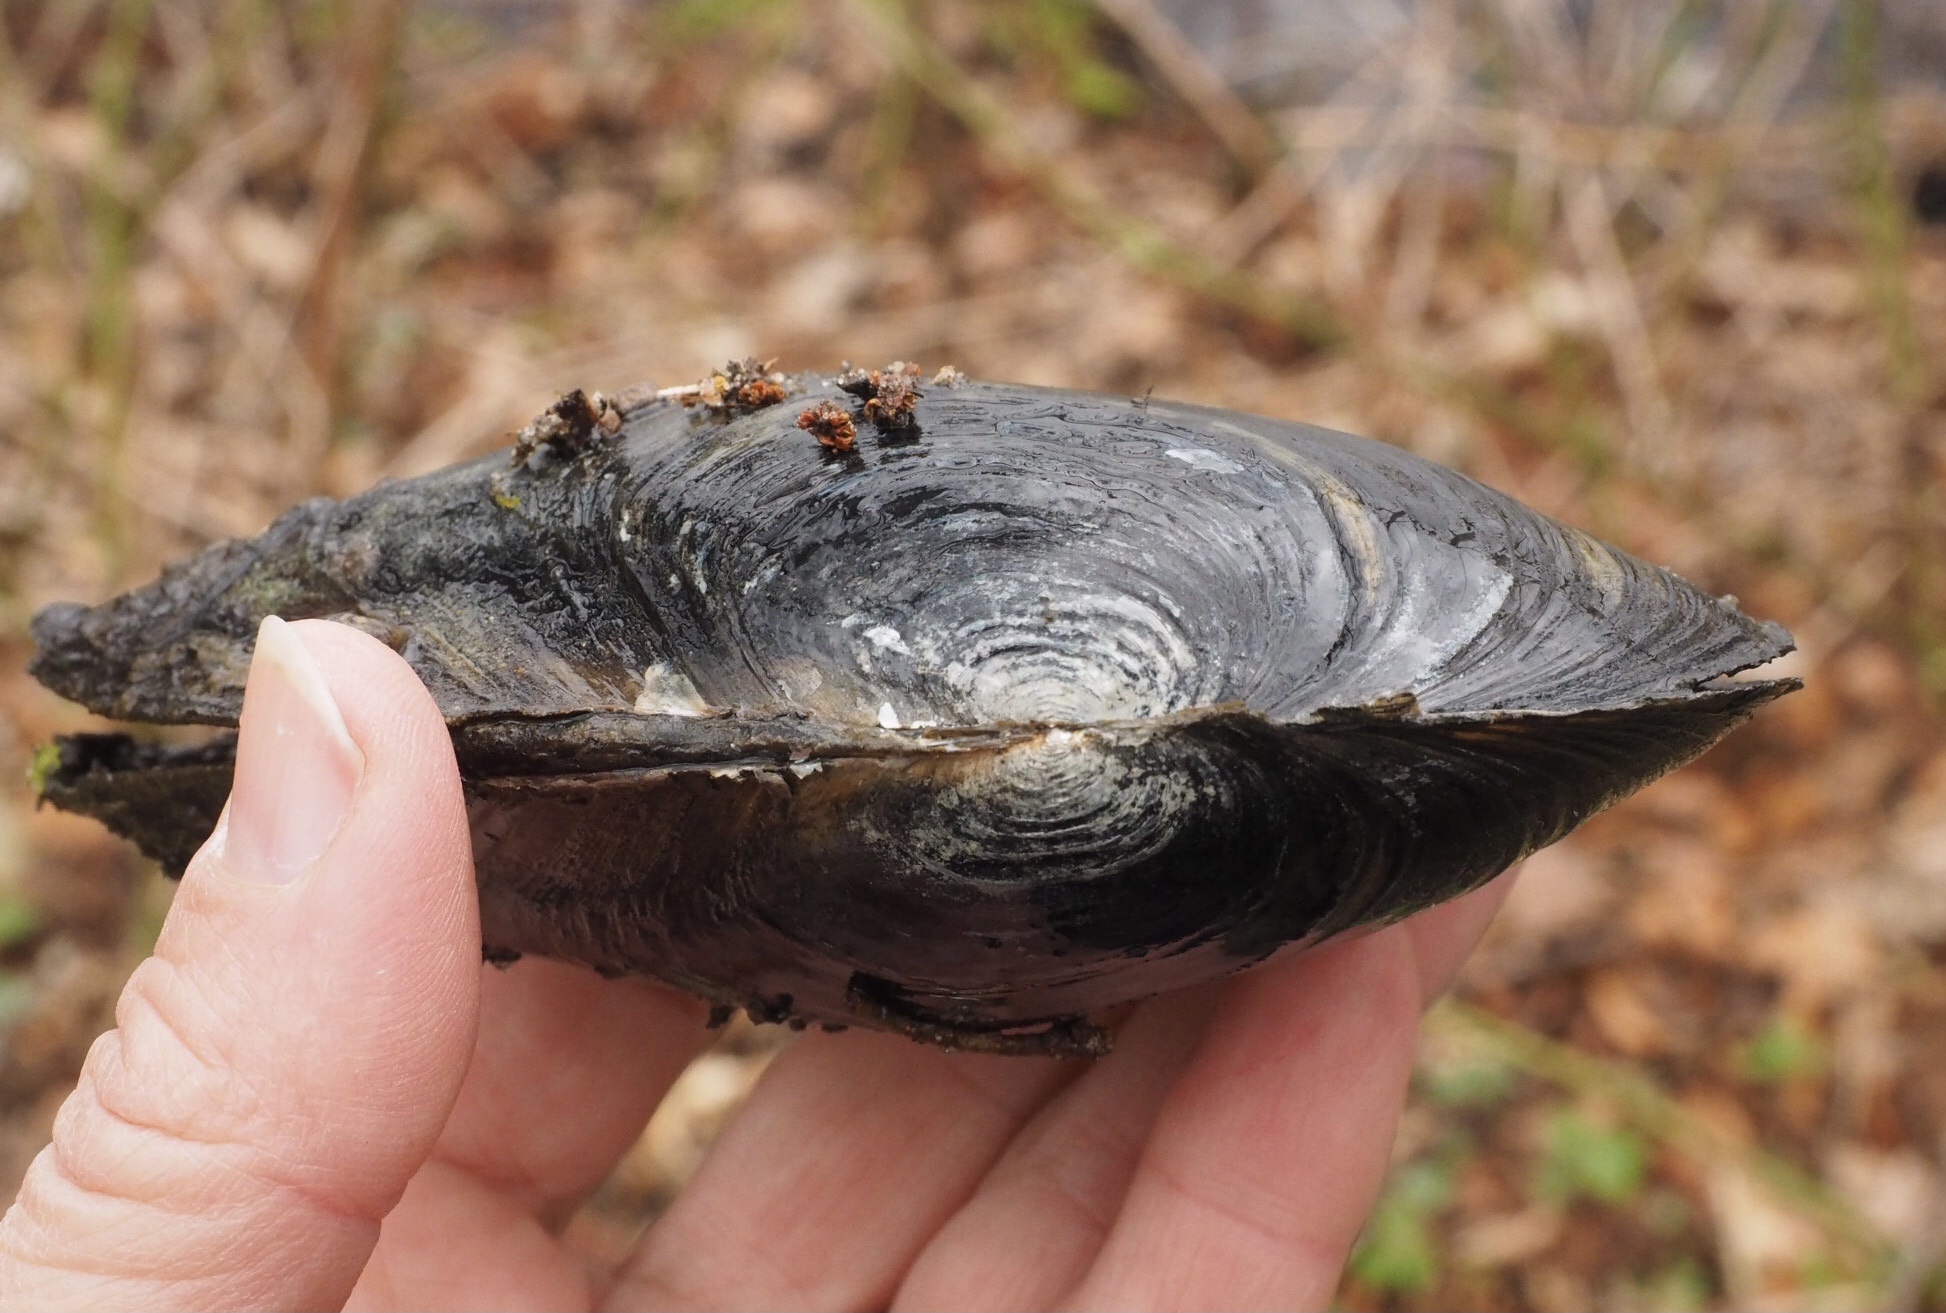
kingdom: Animalia
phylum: Mollusca
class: Bivalvia
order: Unionida
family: Unionidae
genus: Anodonta
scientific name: Anodonta cygnea
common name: Swan mussel
